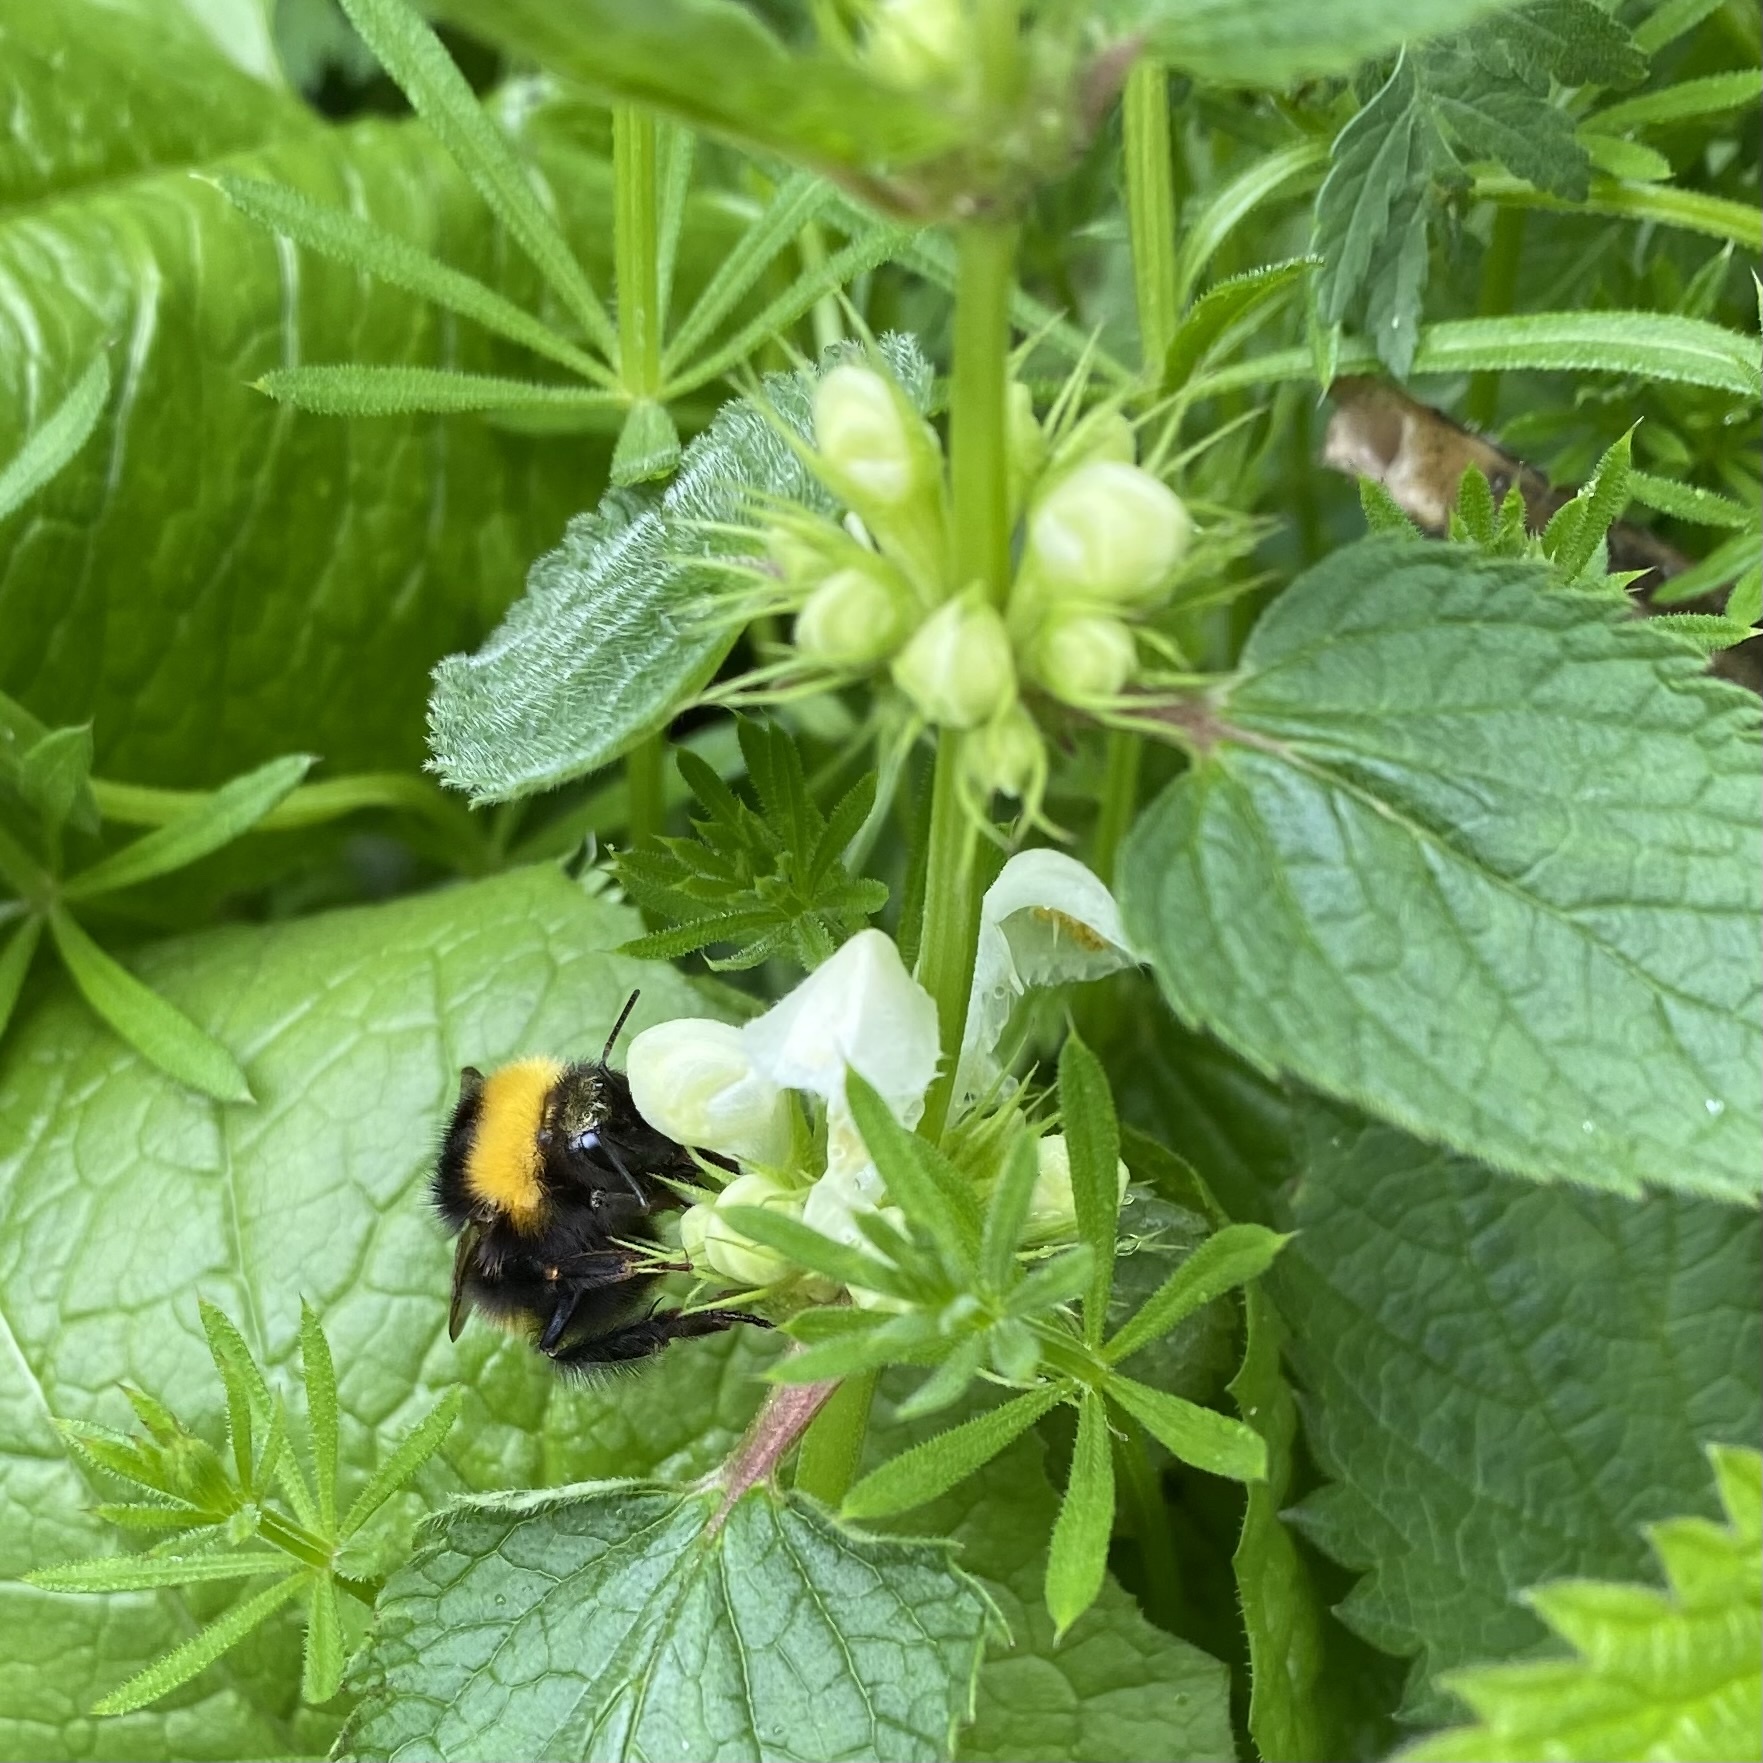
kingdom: Plantae
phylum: Tracheophyta
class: Magnoliopsida
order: Lamiales
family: Lamiaceae
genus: Lamium
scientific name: Lamium album
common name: White dead-nettle
